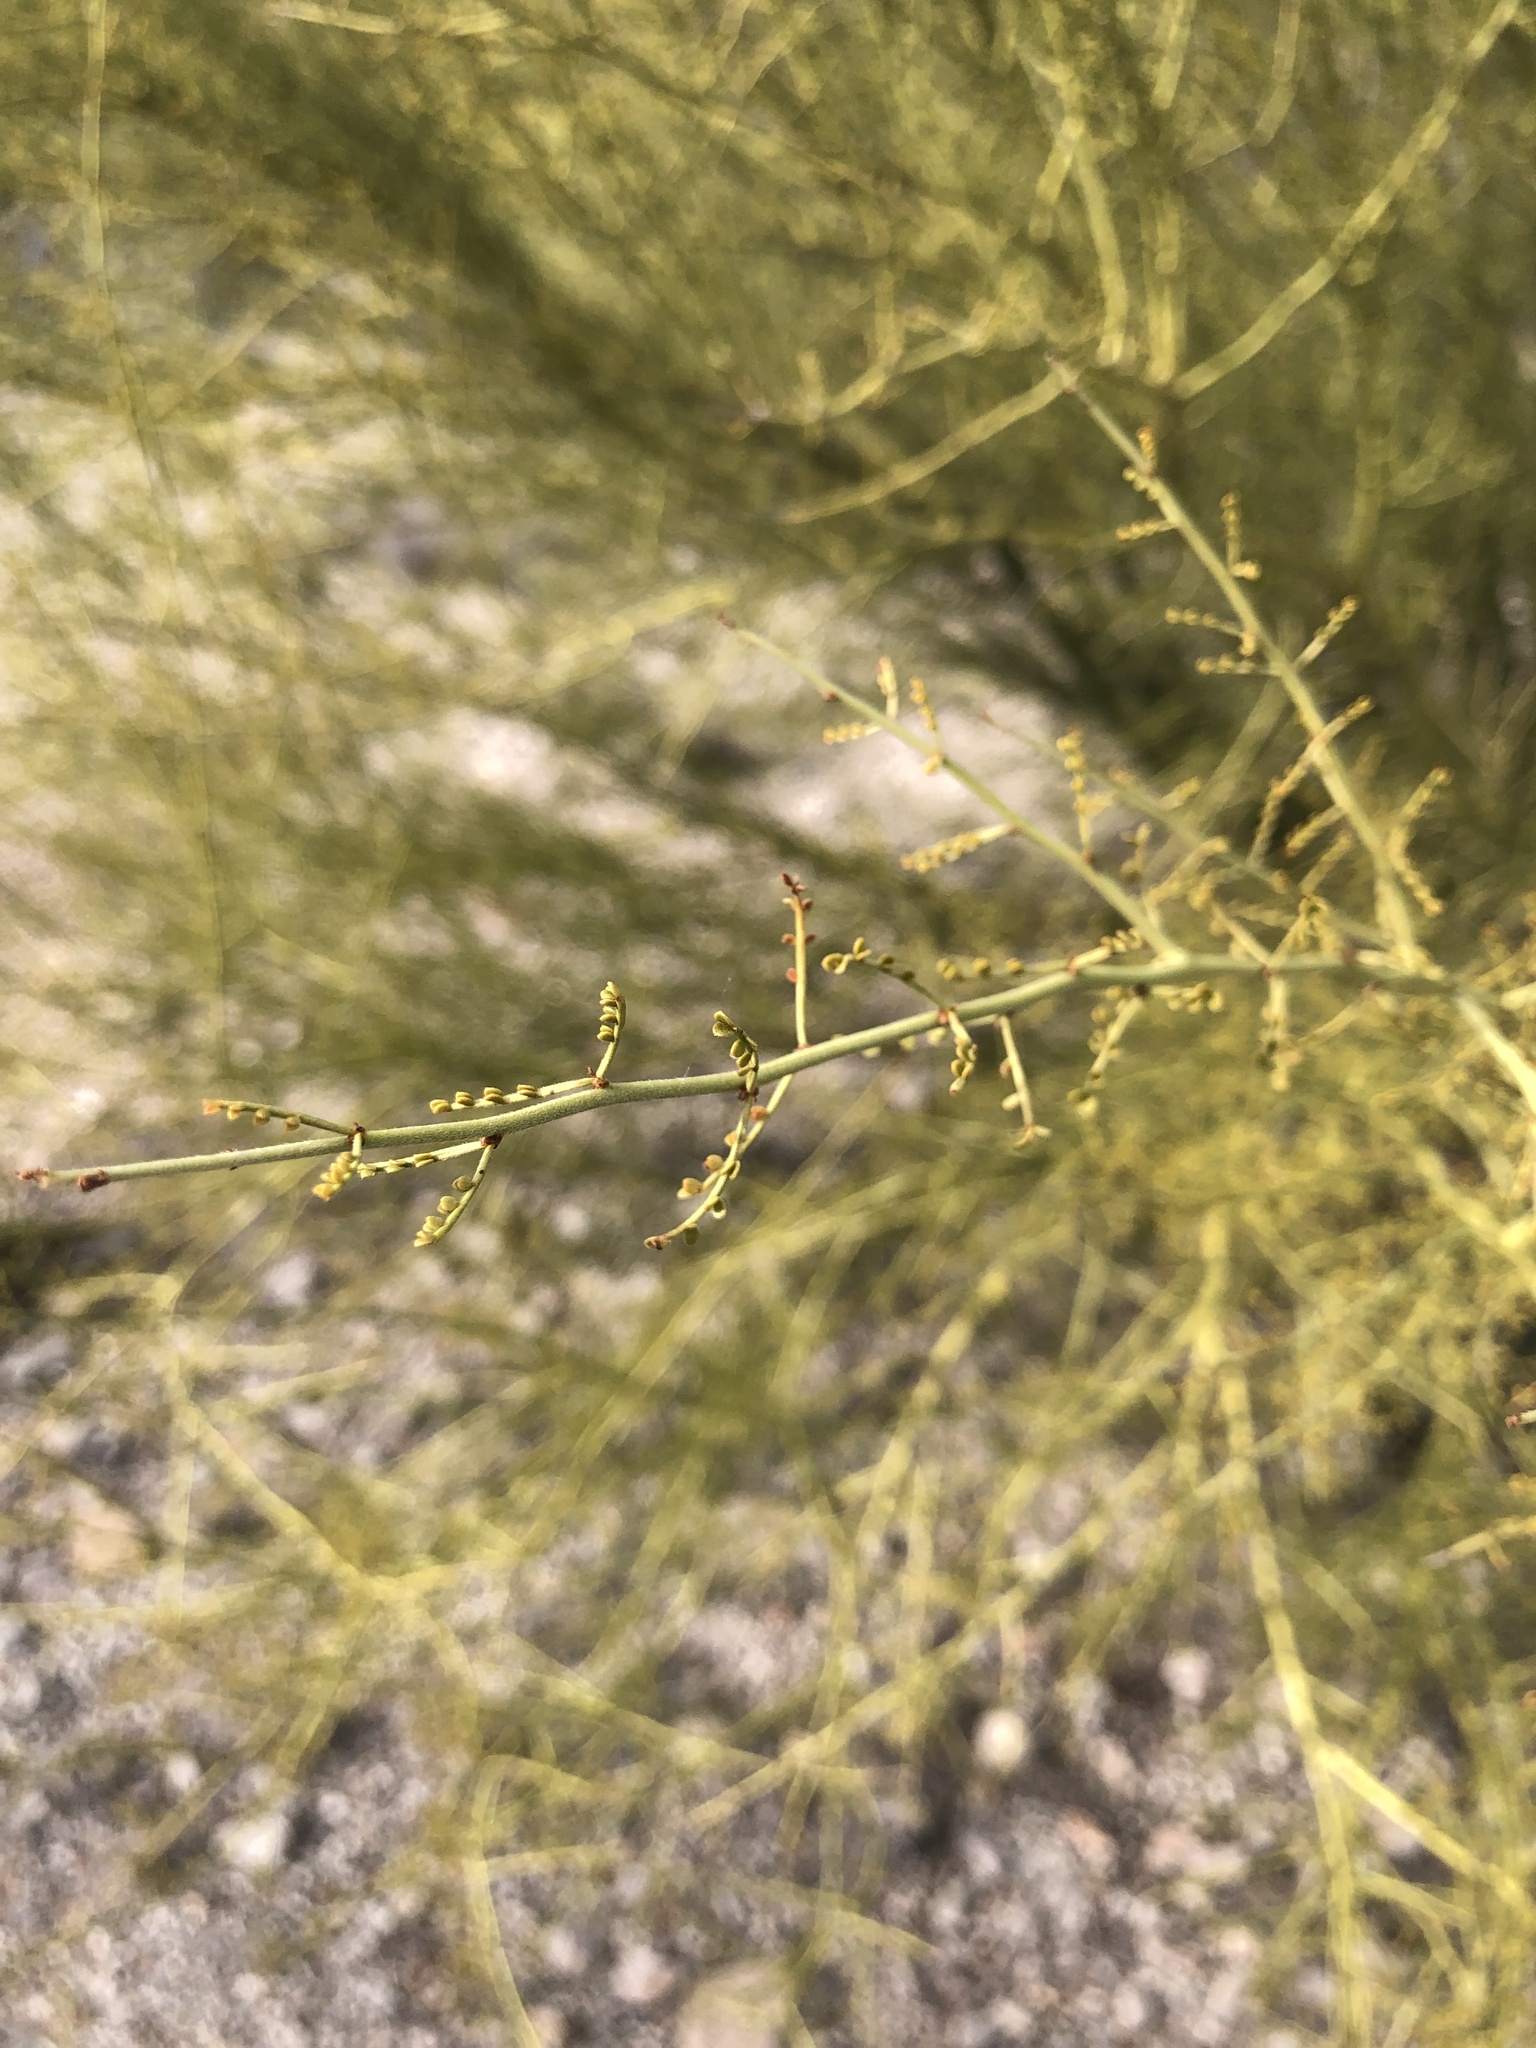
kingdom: Plantae
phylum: Tracheophyta
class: Magnoliopsida
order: Fabales
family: Fabaceae
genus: Parkinsonia
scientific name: Parkinsonia microphylla
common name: Yellow paloverde
